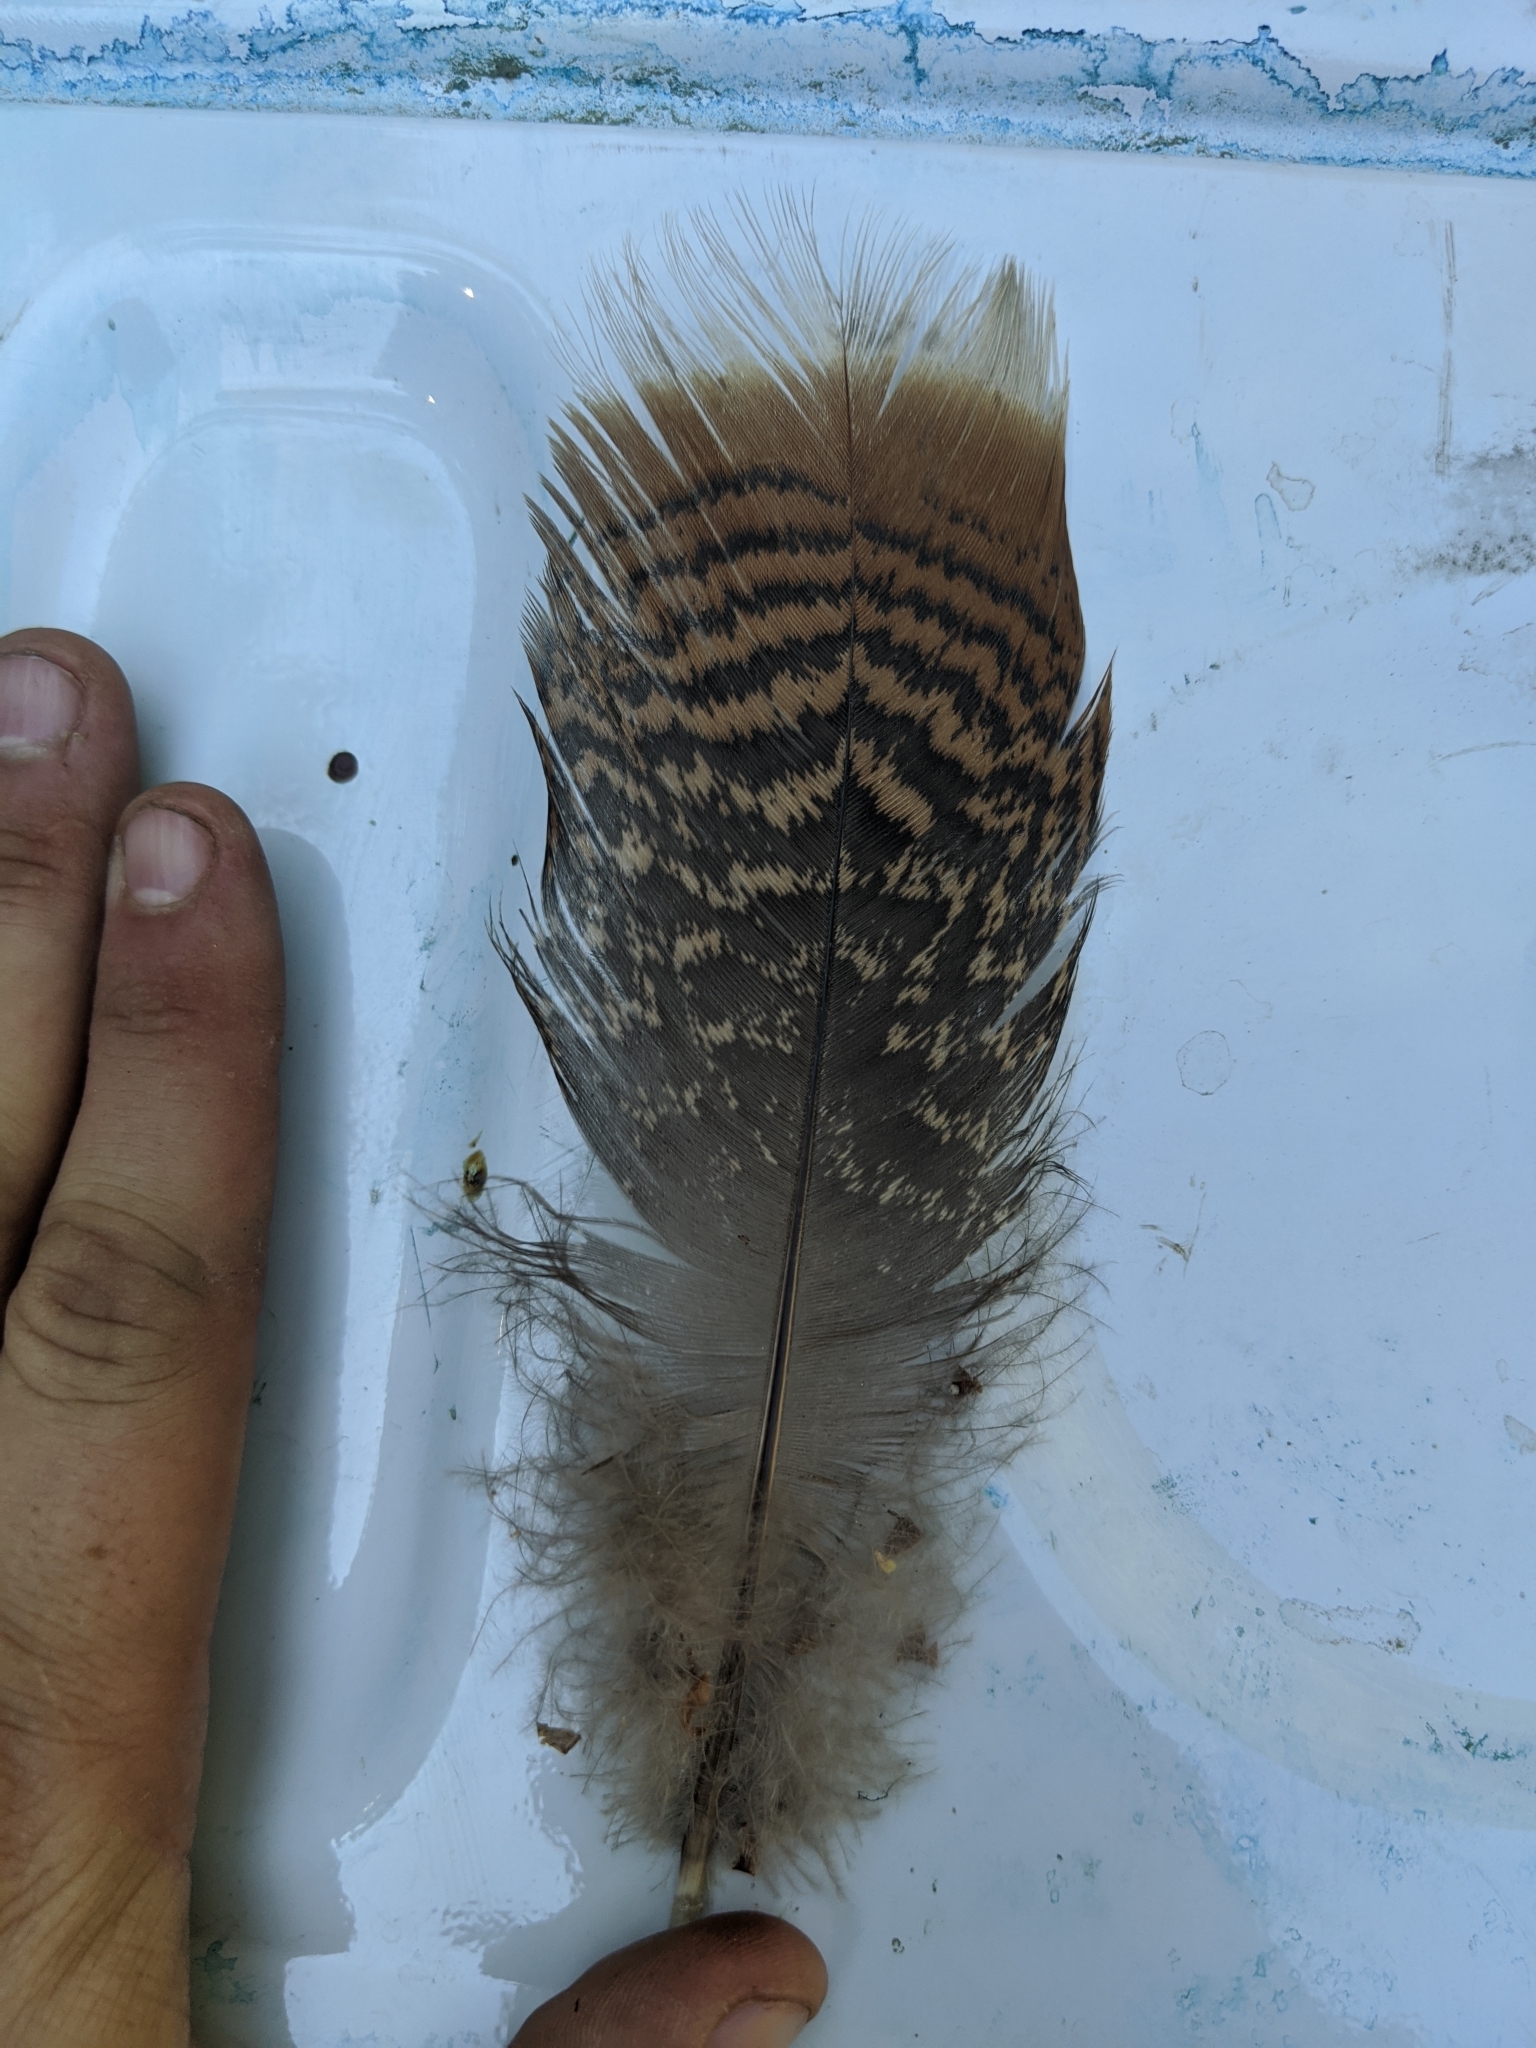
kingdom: Animalia
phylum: Chordata
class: Aves
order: Galliformes
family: Phasianidae
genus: Meleagris
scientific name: Meleagris gallopavo
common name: Wild turkey
